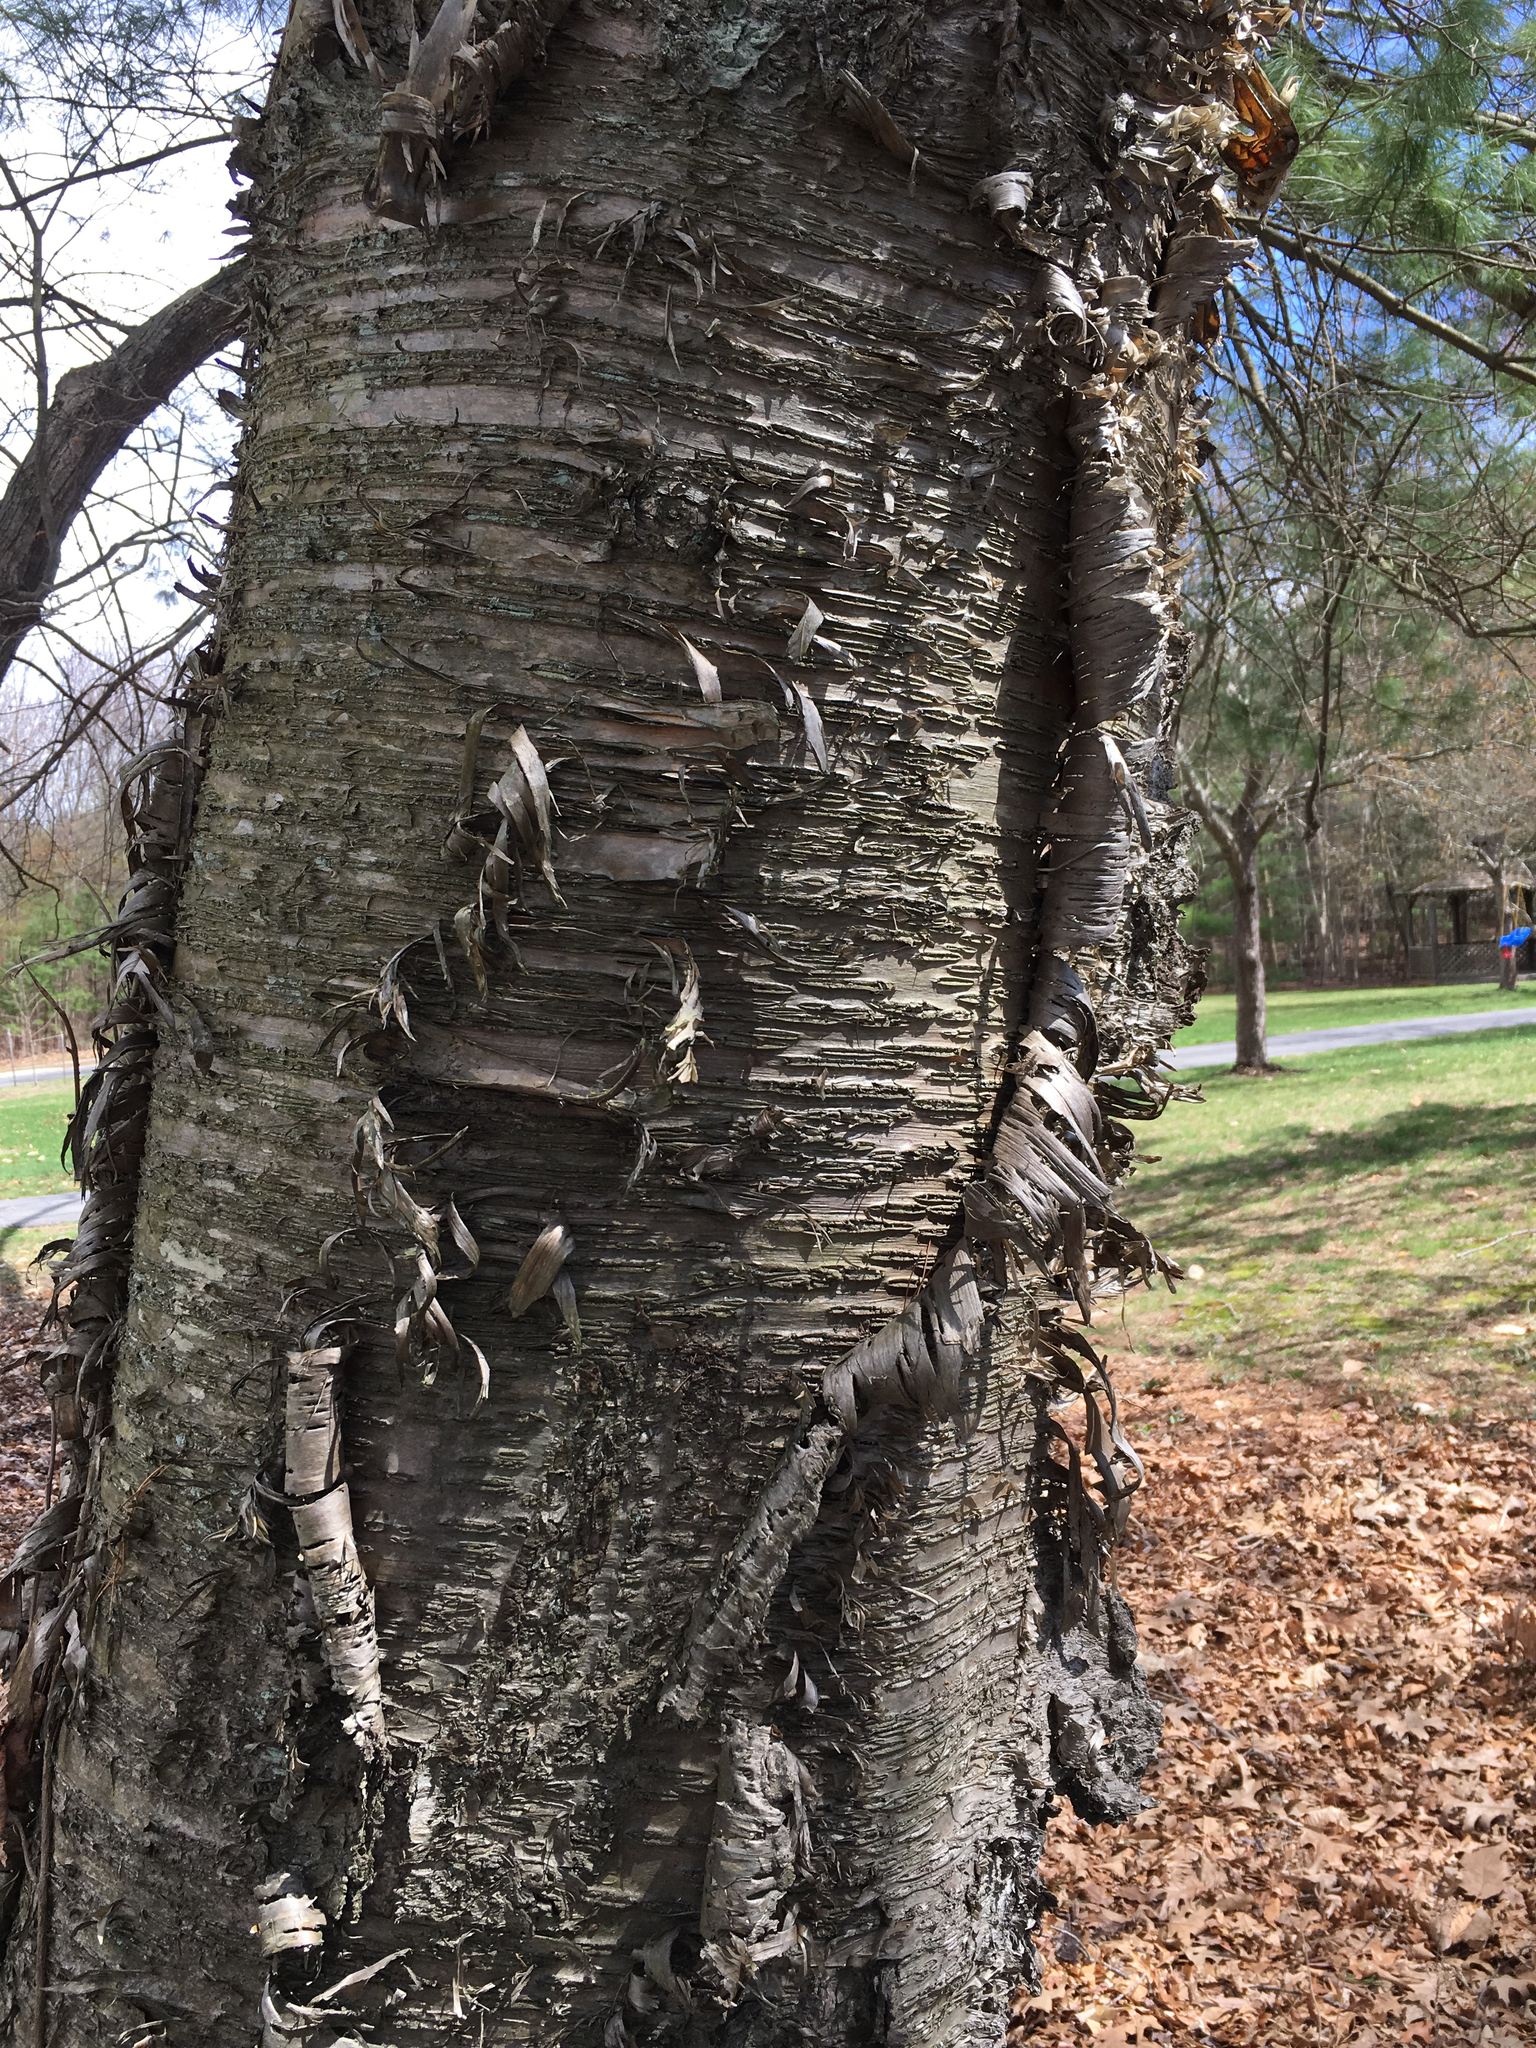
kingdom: Plantae
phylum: Tracheophyta
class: Magnoliopsida
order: Fagales
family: Betulaceae
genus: Betula
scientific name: Betula alleghaniensis
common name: Yellow birch
